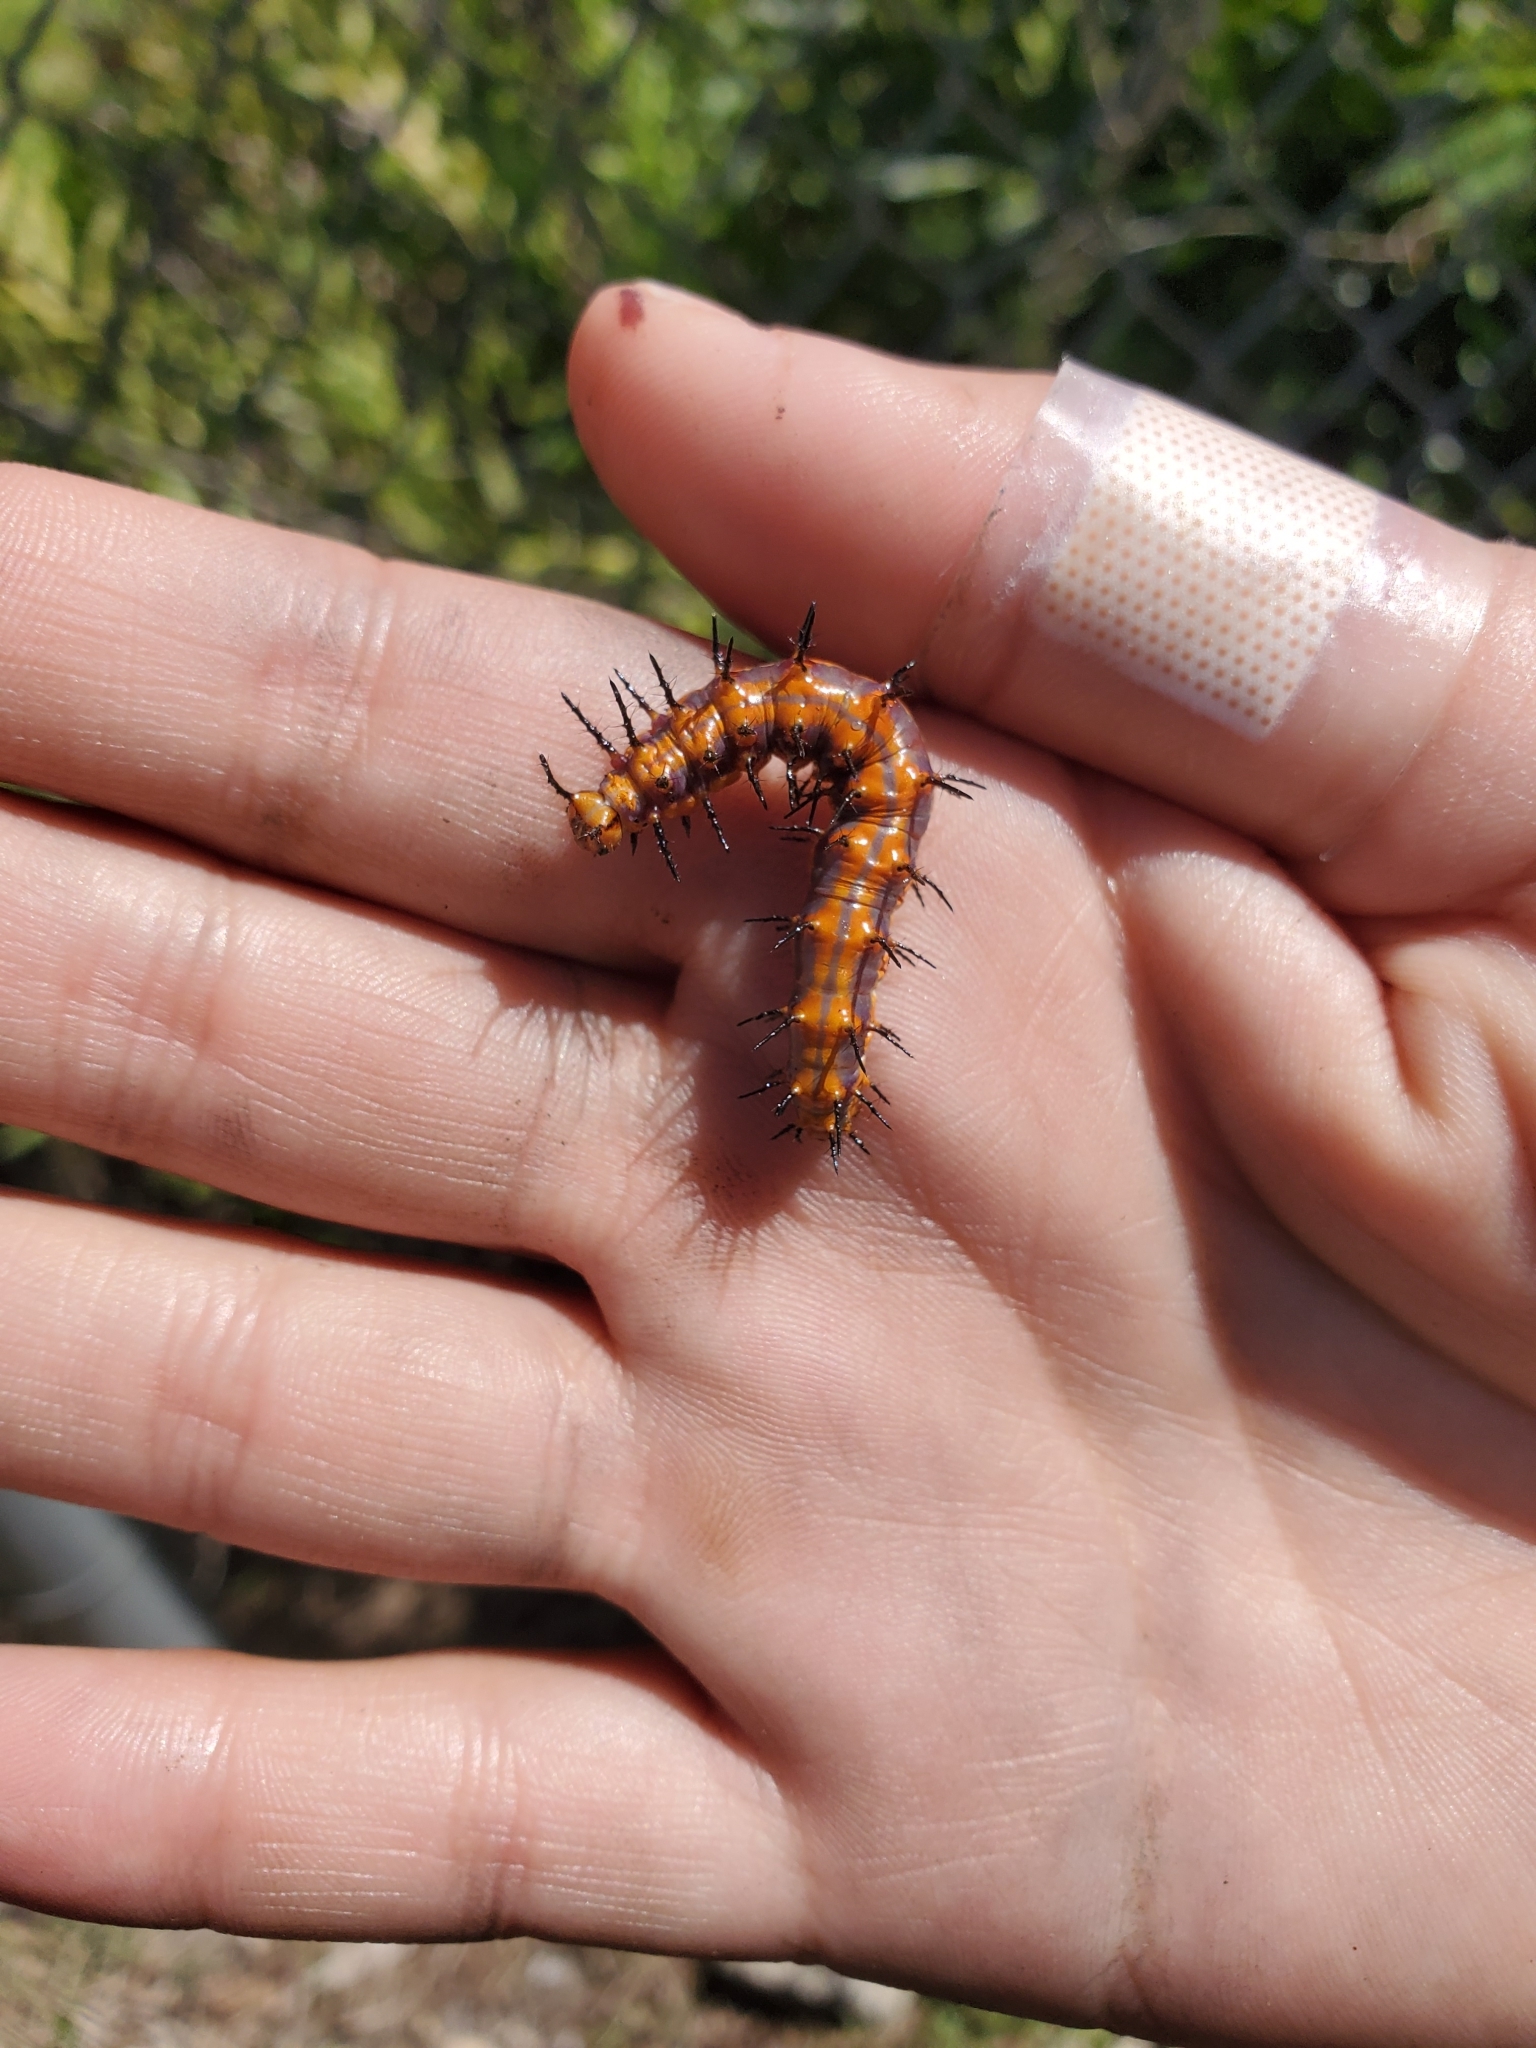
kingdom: Animalia
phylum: Arthropoda
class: Insecta
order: Lepidoptera
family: Nymphalidae
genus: Dione
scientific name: Dione vanillae
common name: Gulf fritillary
